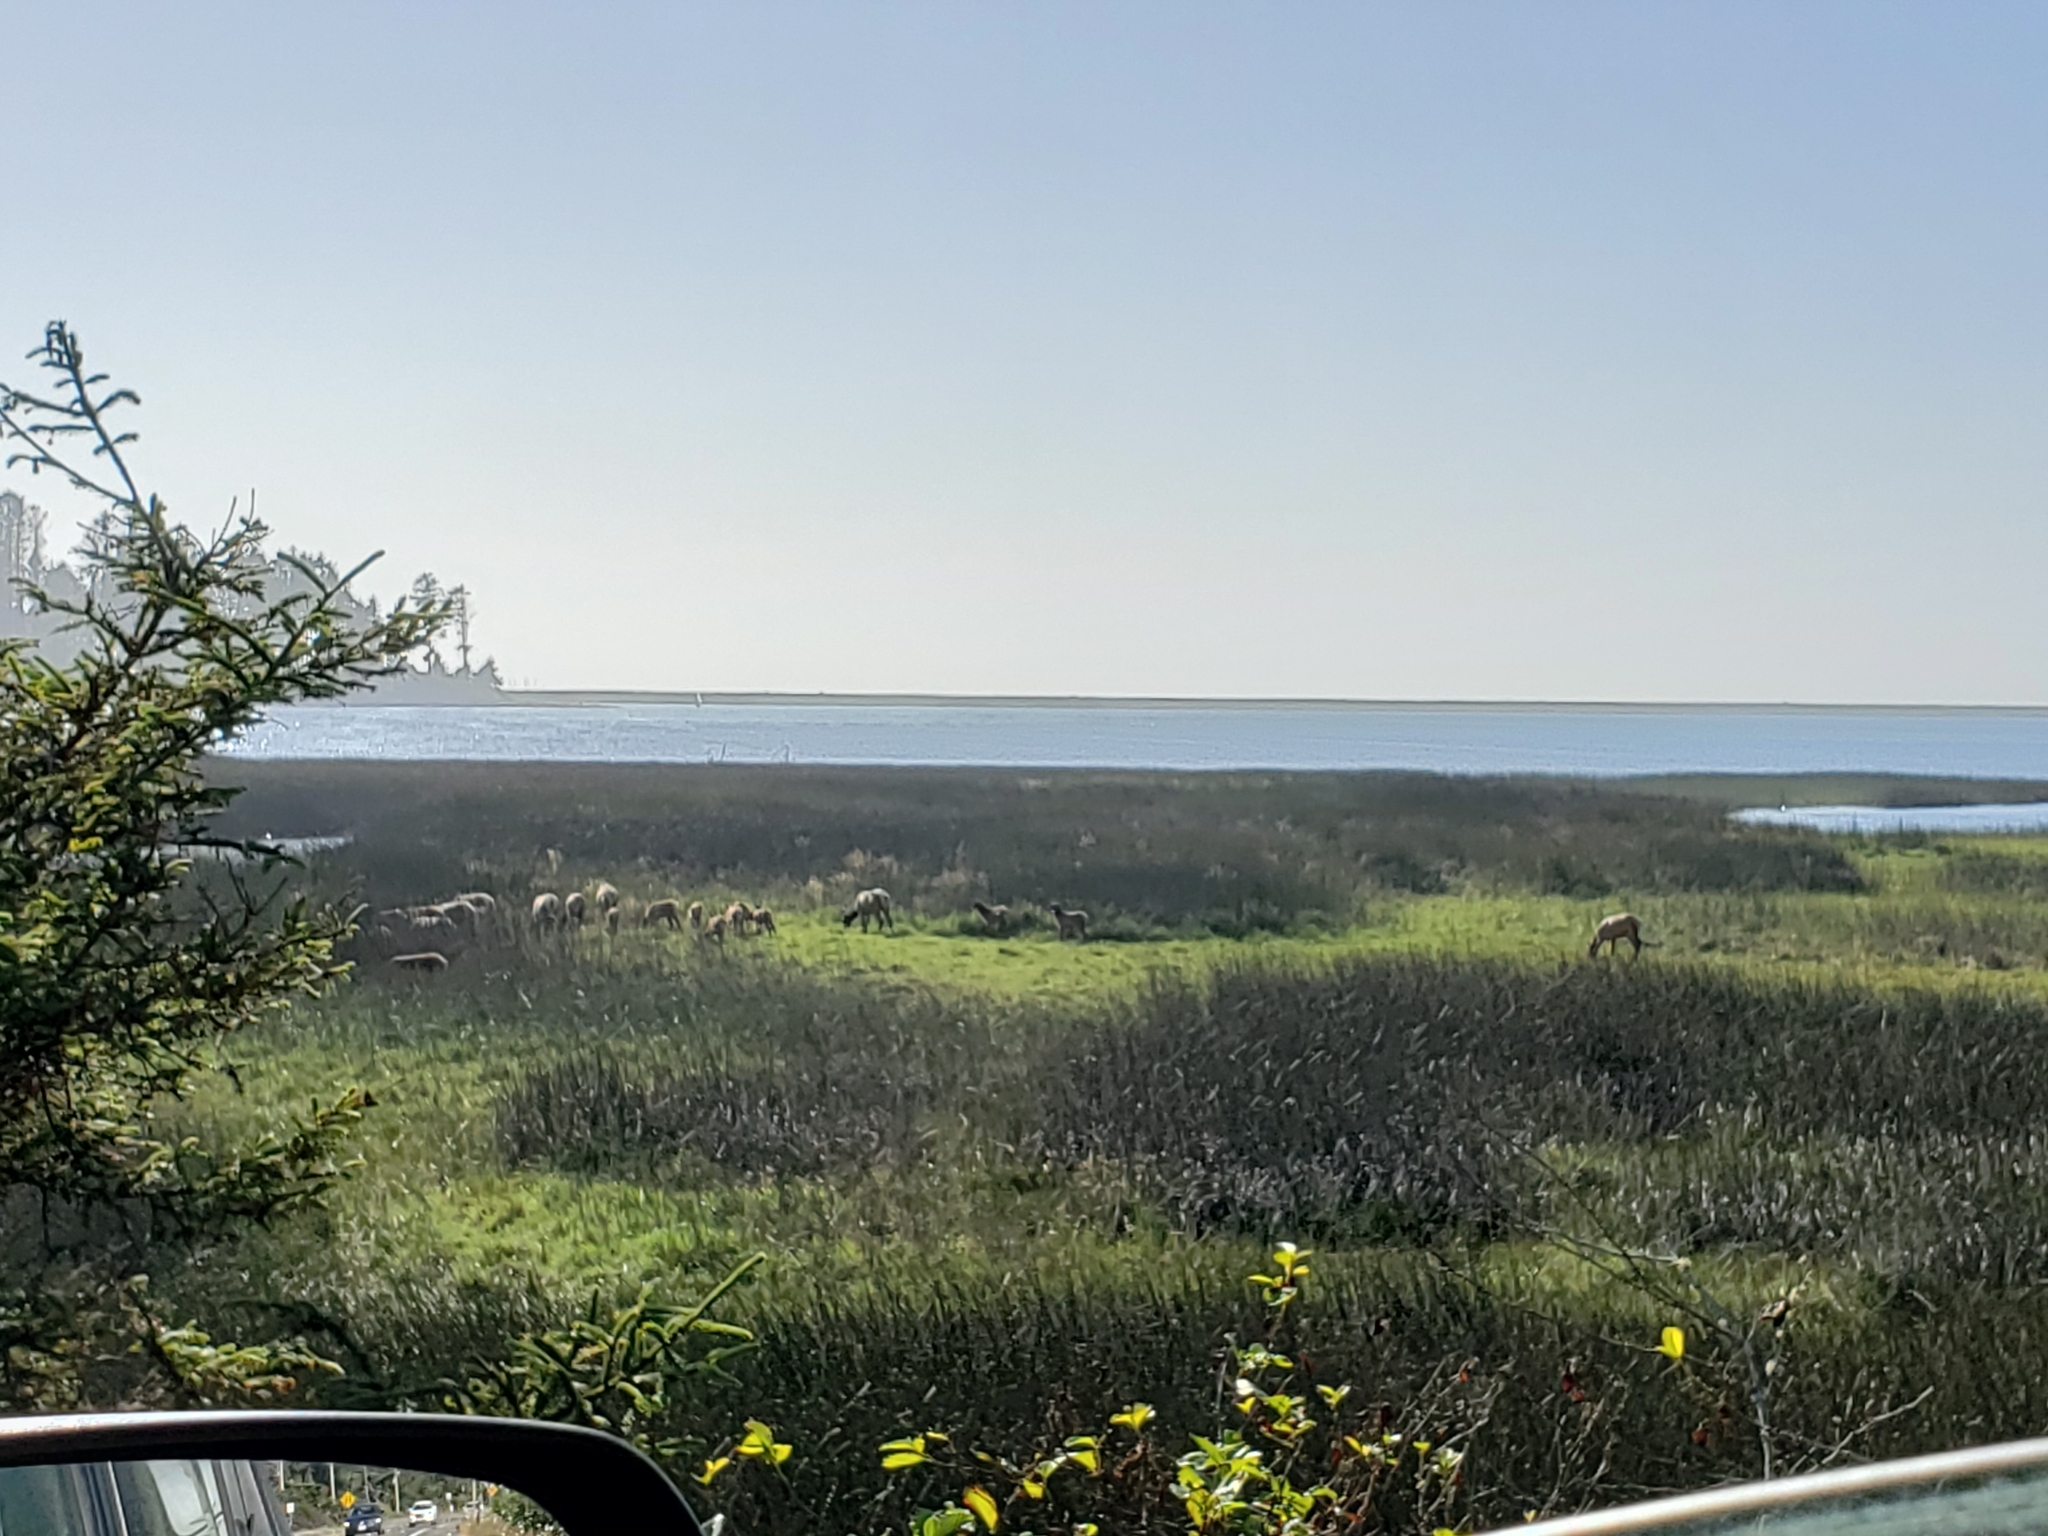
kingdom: Animalia
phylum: Chordata
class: Mammalia
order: Artiodactyla
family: Cervidae
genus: Cervus
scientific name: Cervus elaphus
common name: Red deer
